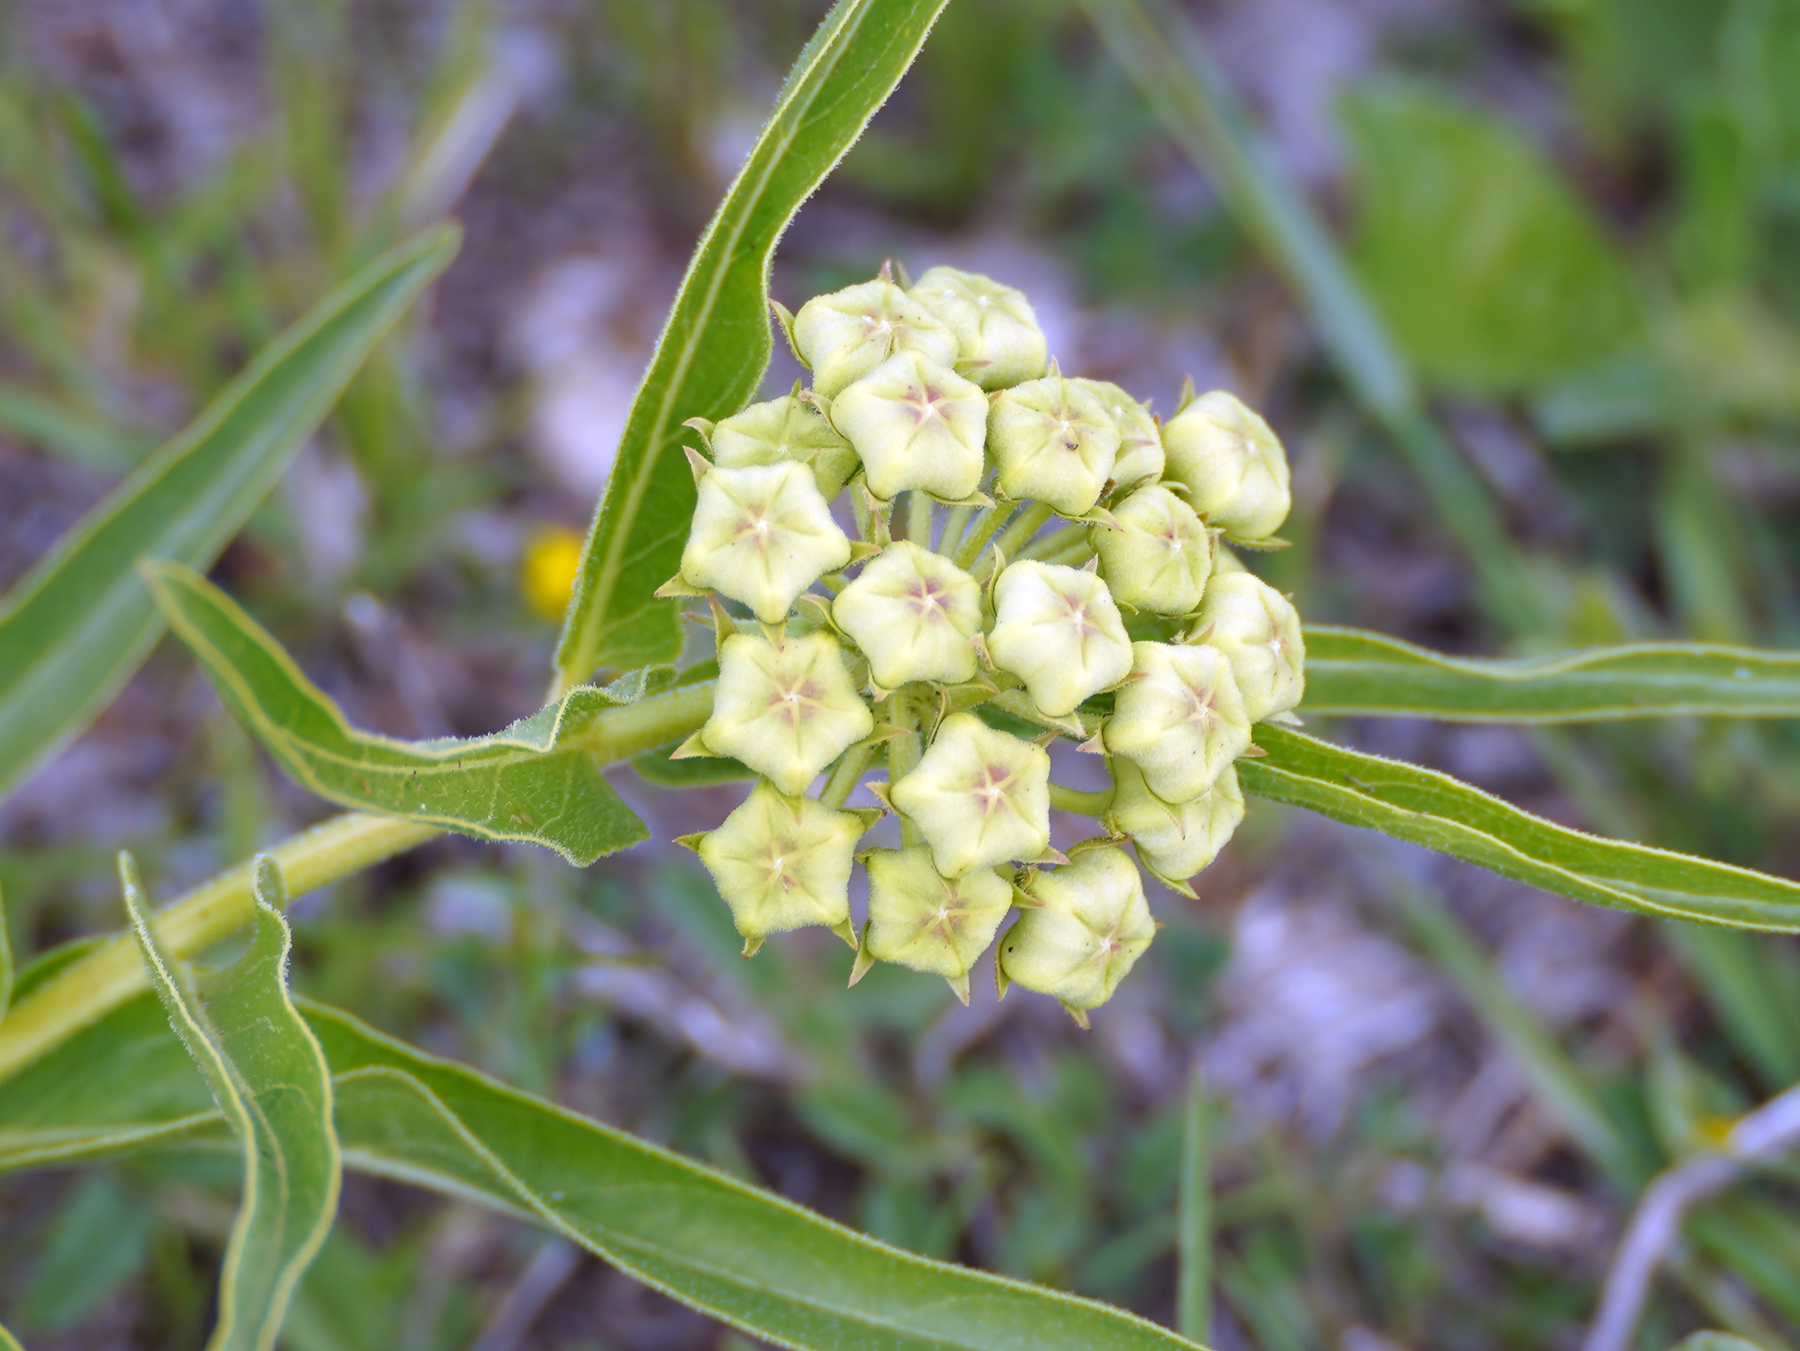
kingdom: Plantae
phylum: Tracheophyta
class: Magnoliopsida
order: Gentianales
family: Apocynaceae
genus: Asclepias
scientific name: Asclepias asperula
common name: Antelope horns
